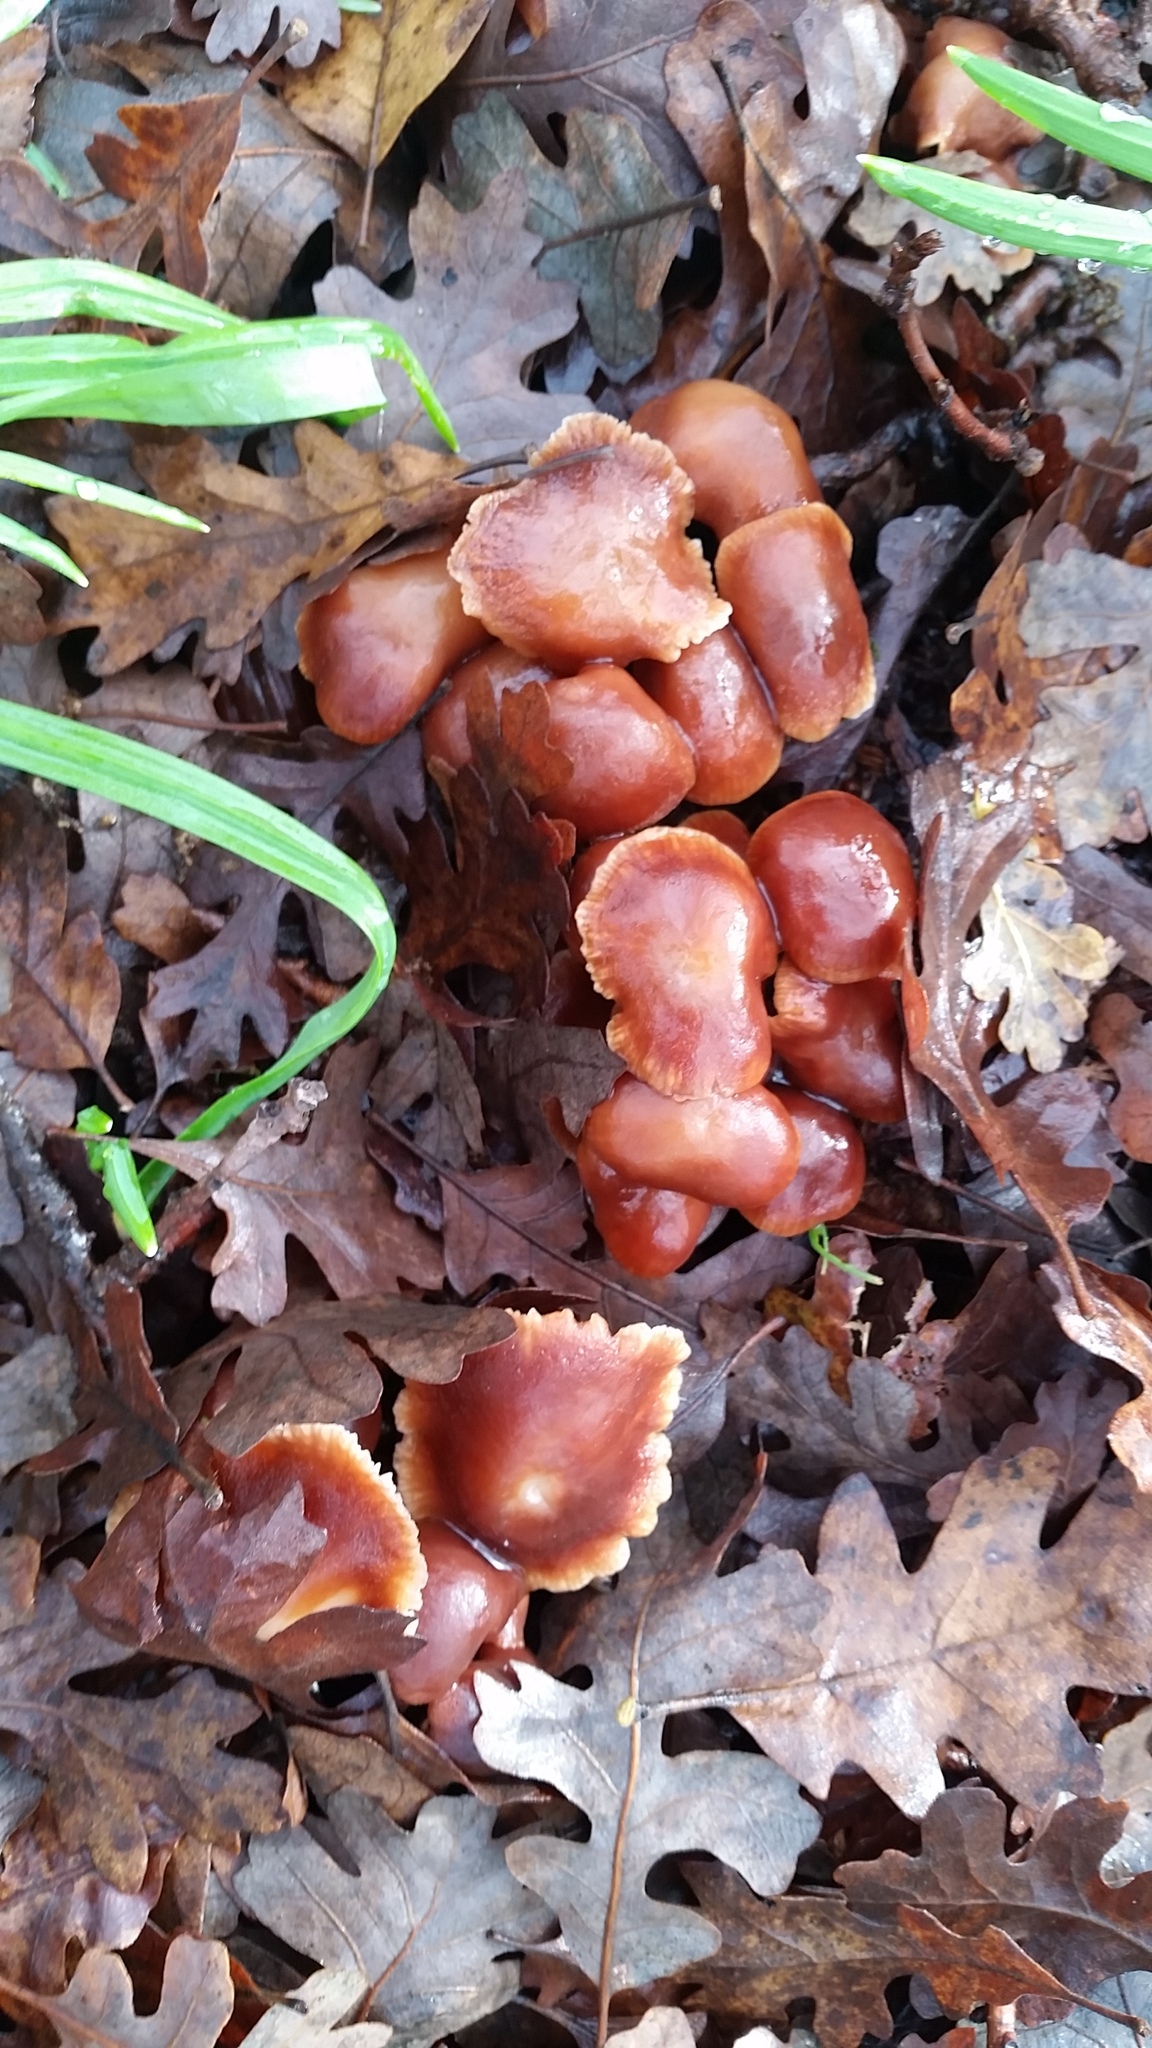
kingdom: Fungi
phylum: Basidiomycota
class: Agaricomycetes
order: Agaricales
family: Omphalotaceae
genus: Gymnopus
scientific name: Gymnopus brassicolens
